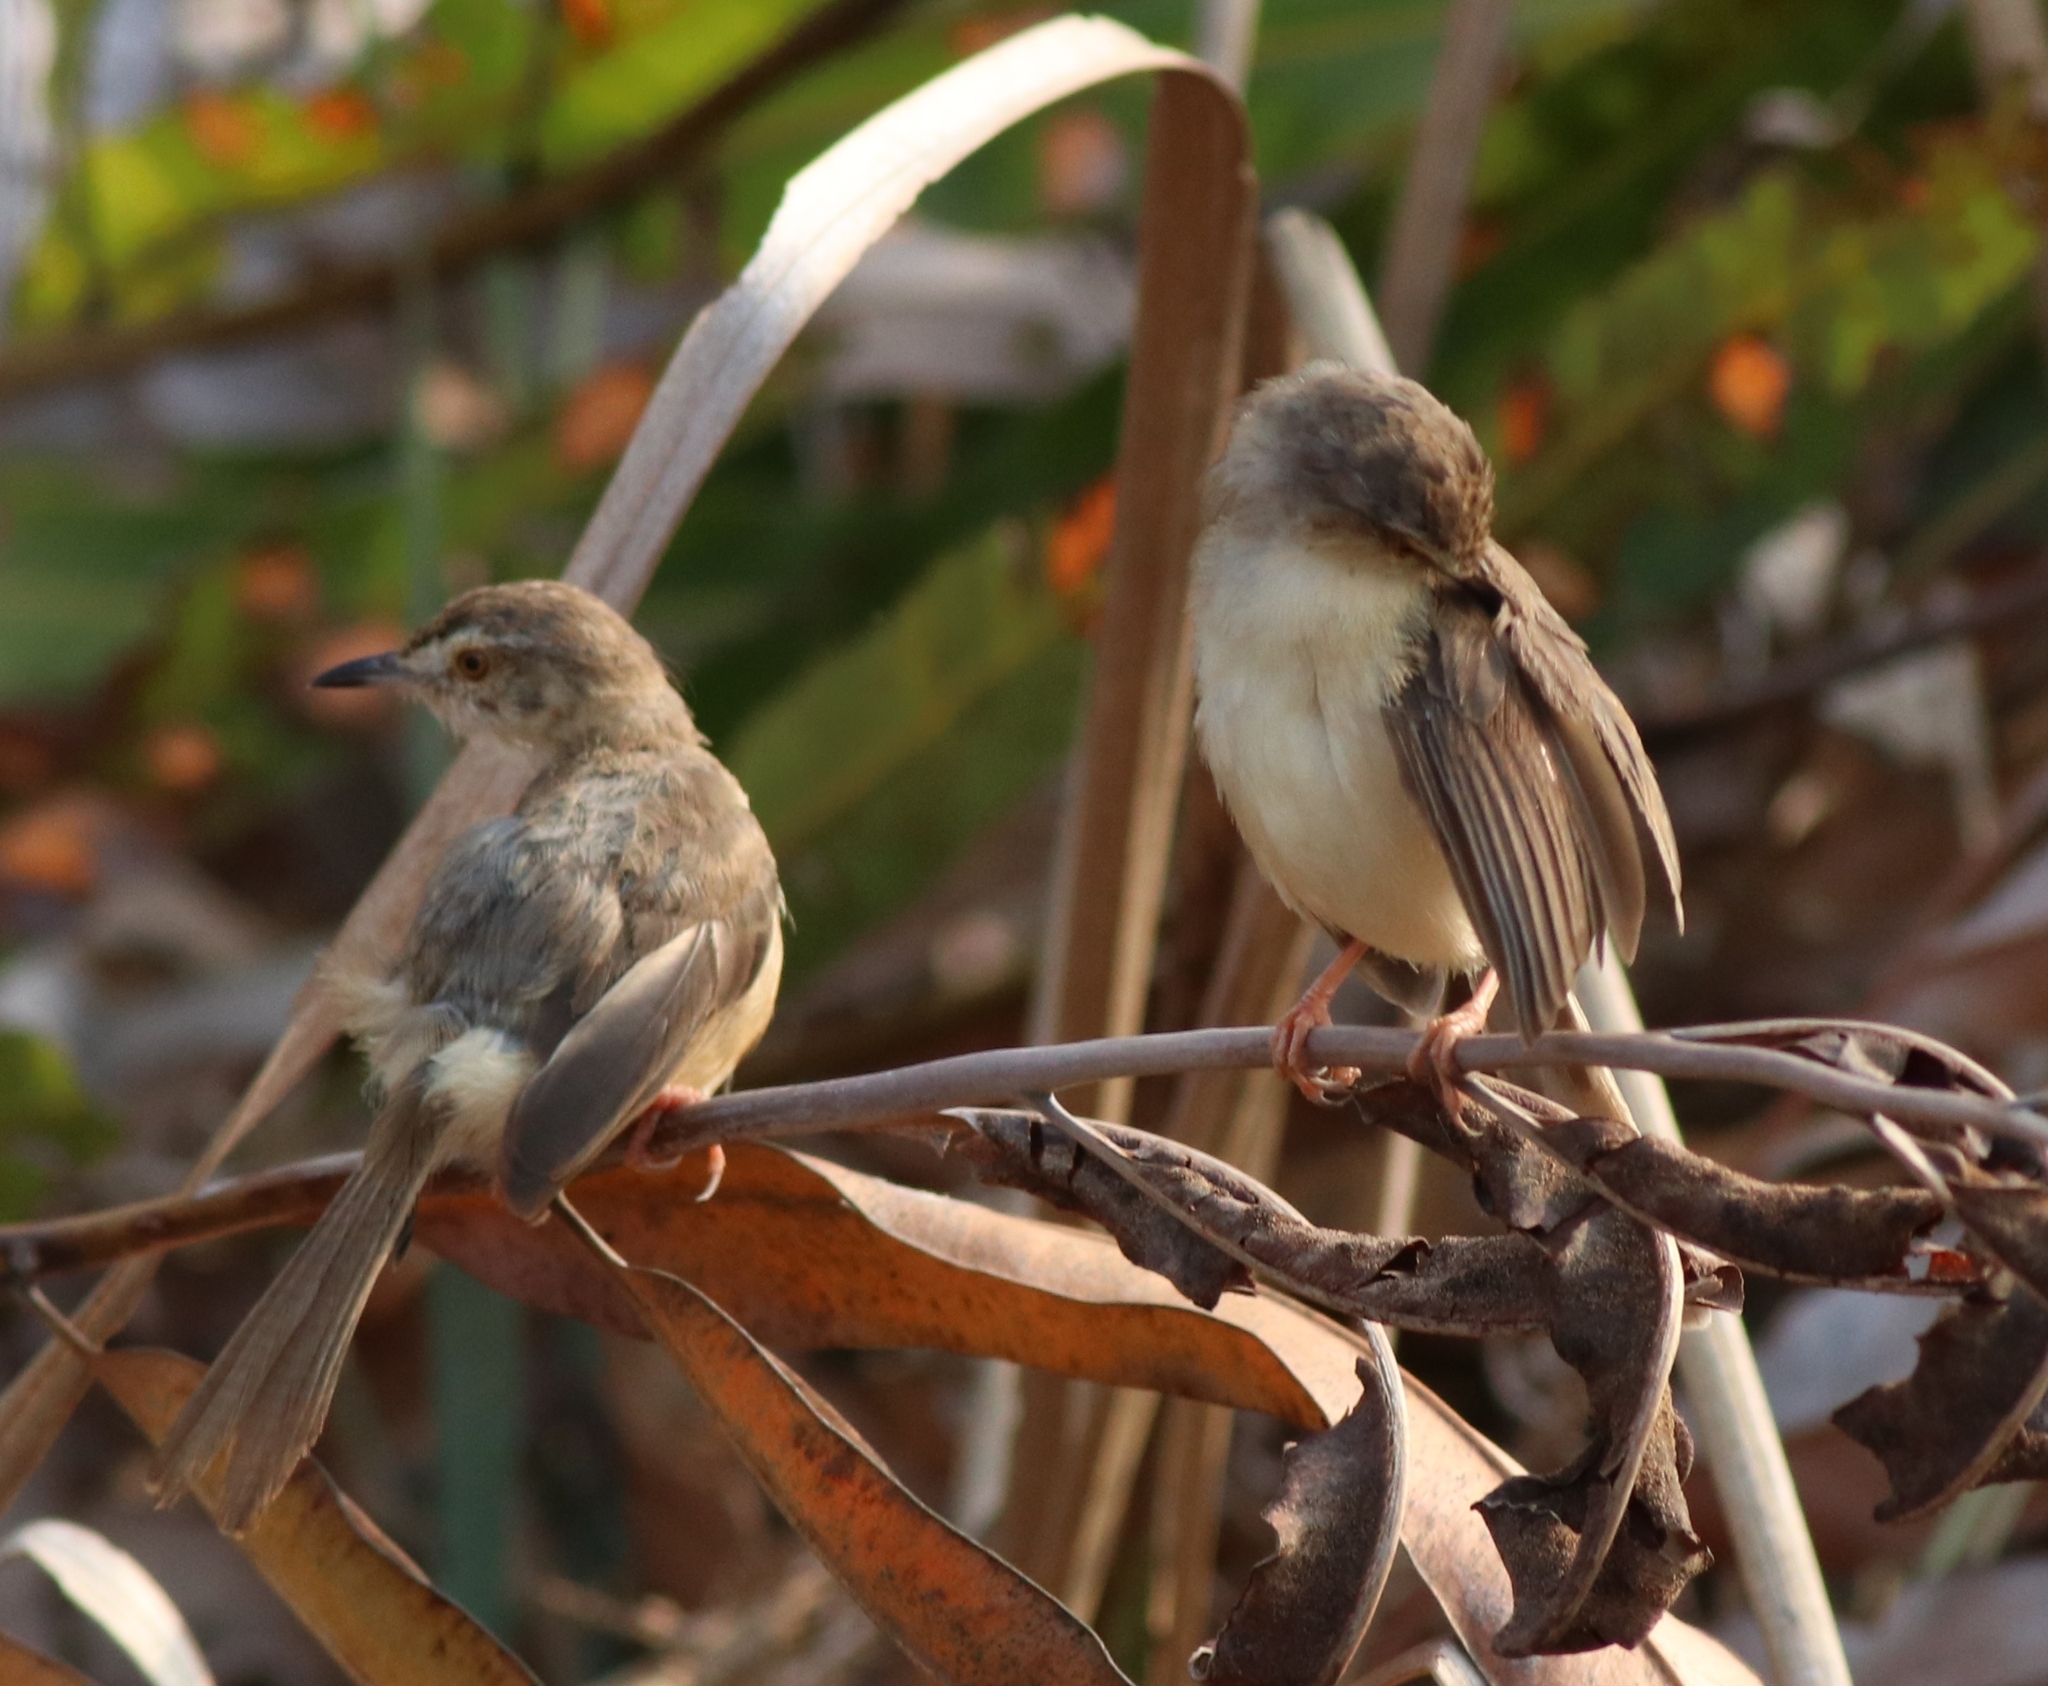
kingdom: Animalia
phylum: Chordata
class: Aves
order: Passeriformes
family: Cisticolidae
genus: Prinia
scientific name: Prinia inornata
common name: Plain prinia
